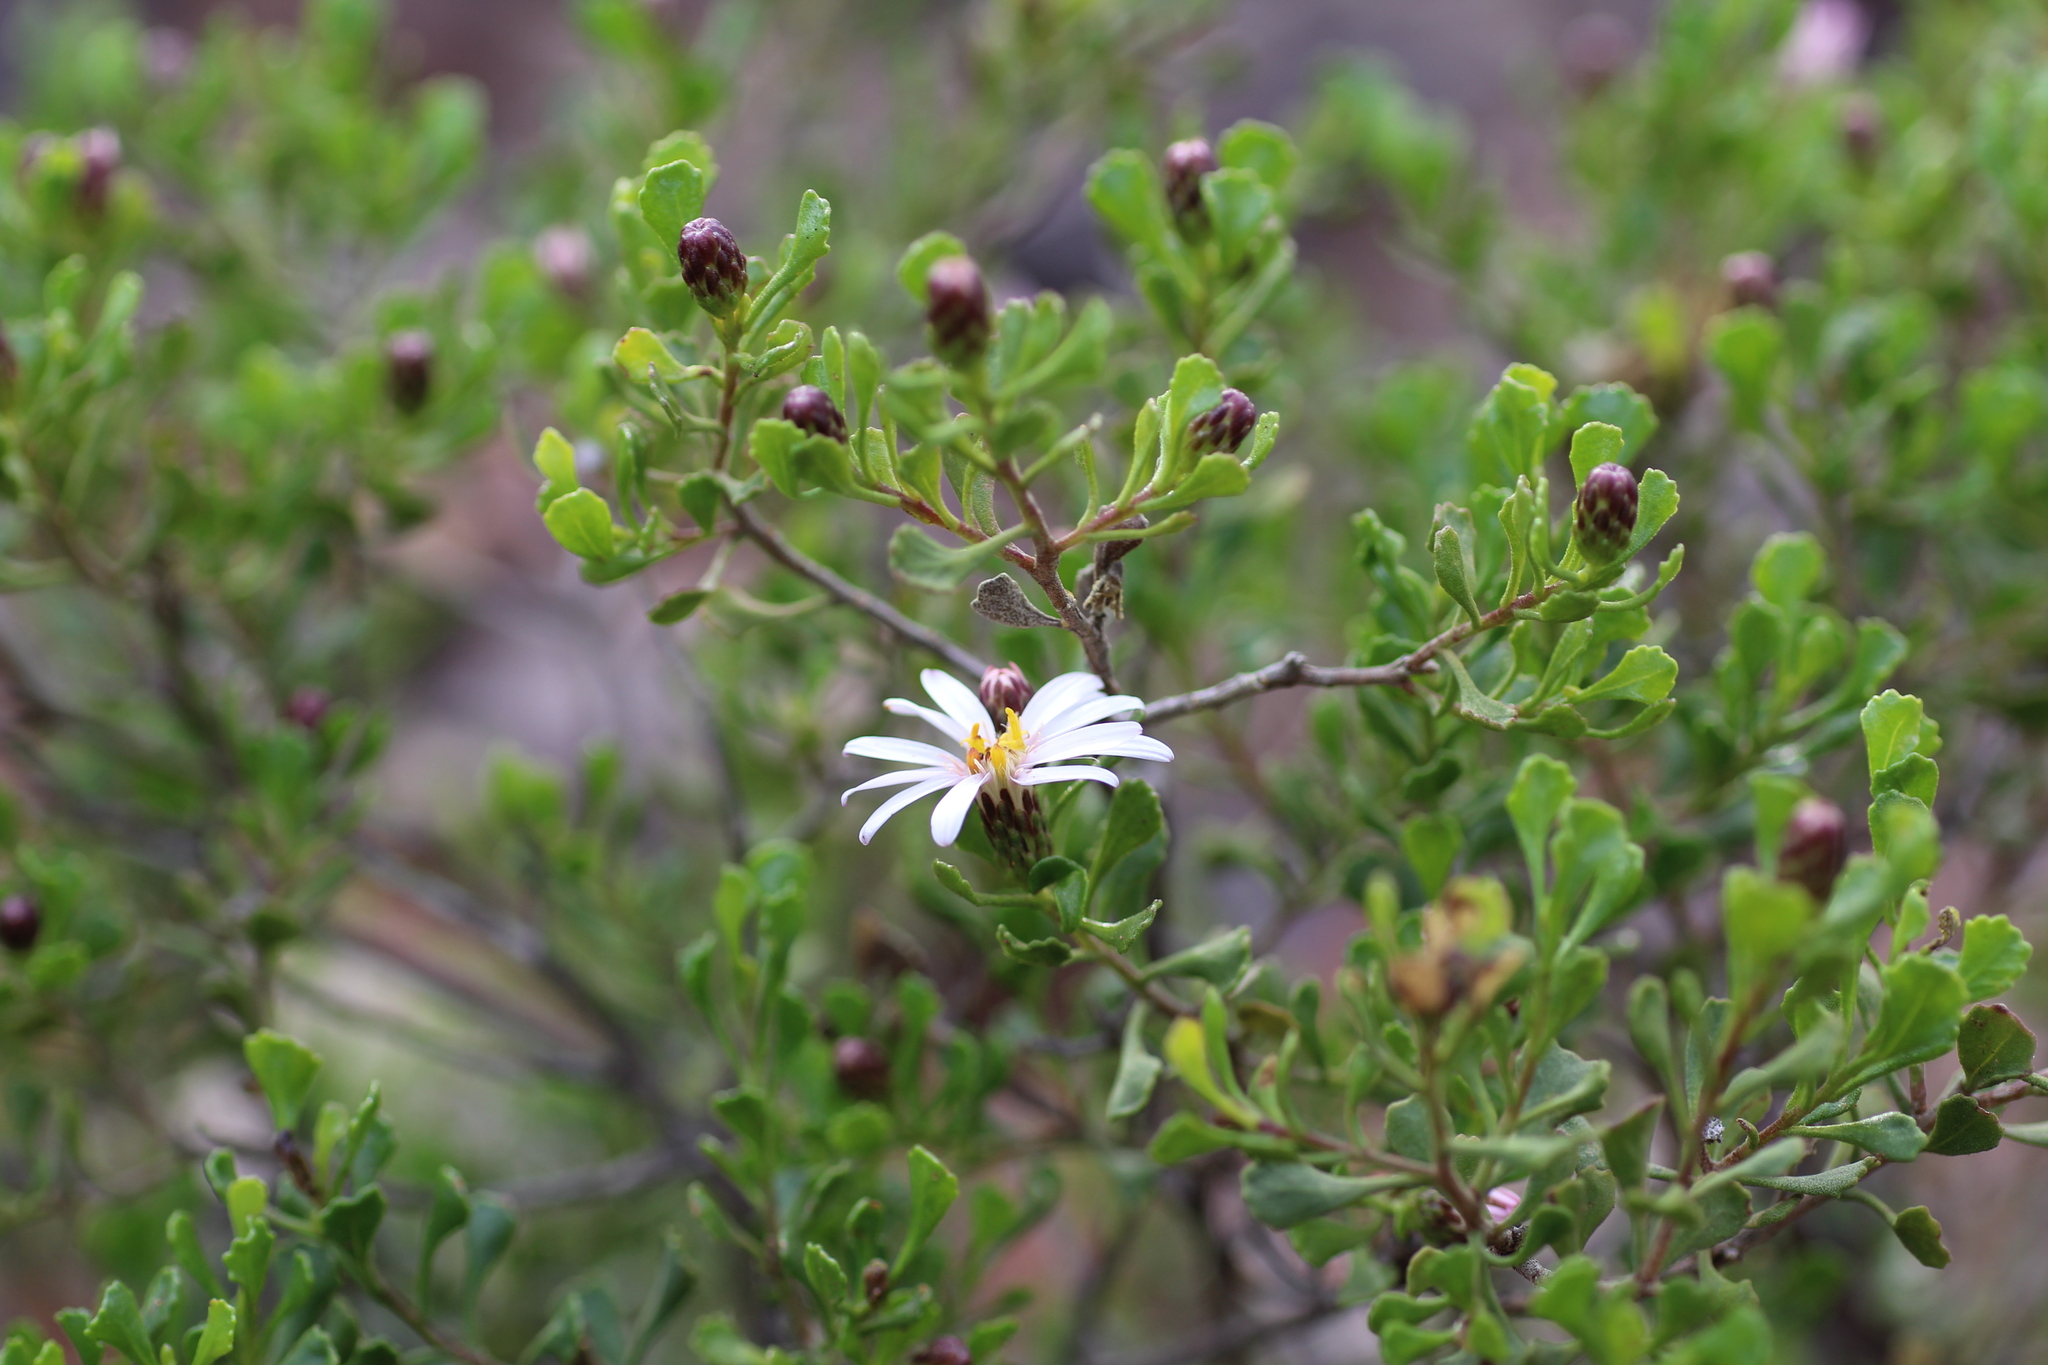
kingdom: Plantae
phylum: Tracheophyta
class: Magnoliopsida
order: Asterales
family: Asteraceae
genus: Walsholaria
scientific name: Walsholaria muelleri
